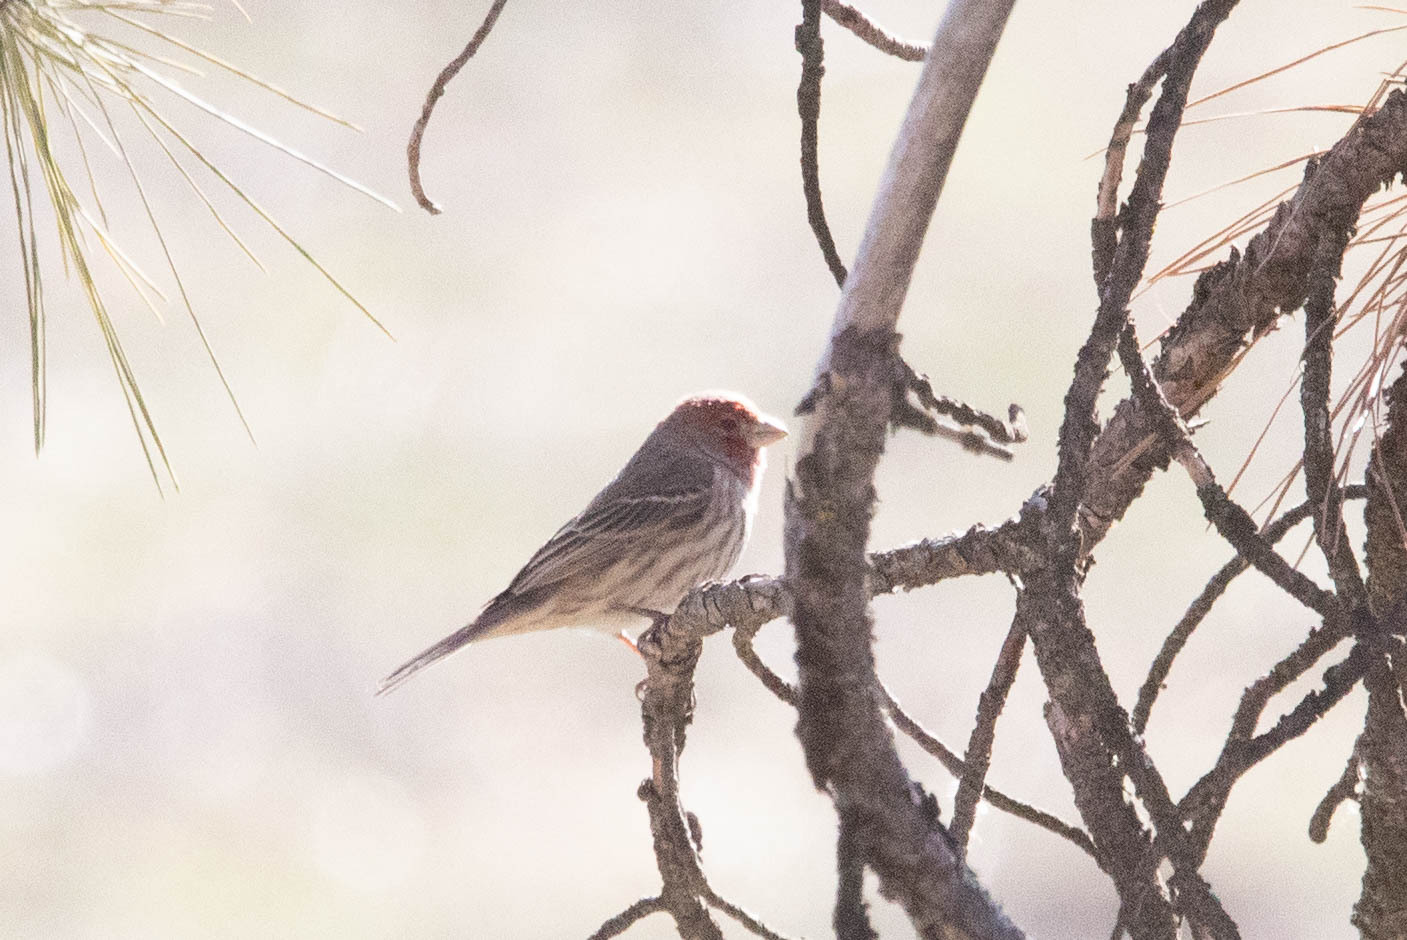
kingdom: Animalia
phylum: Chordata
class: Aves
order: Passeriformes
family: Fringillidae
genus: Haemorhous
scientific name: Haemorhous mexicanus
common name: House finch
